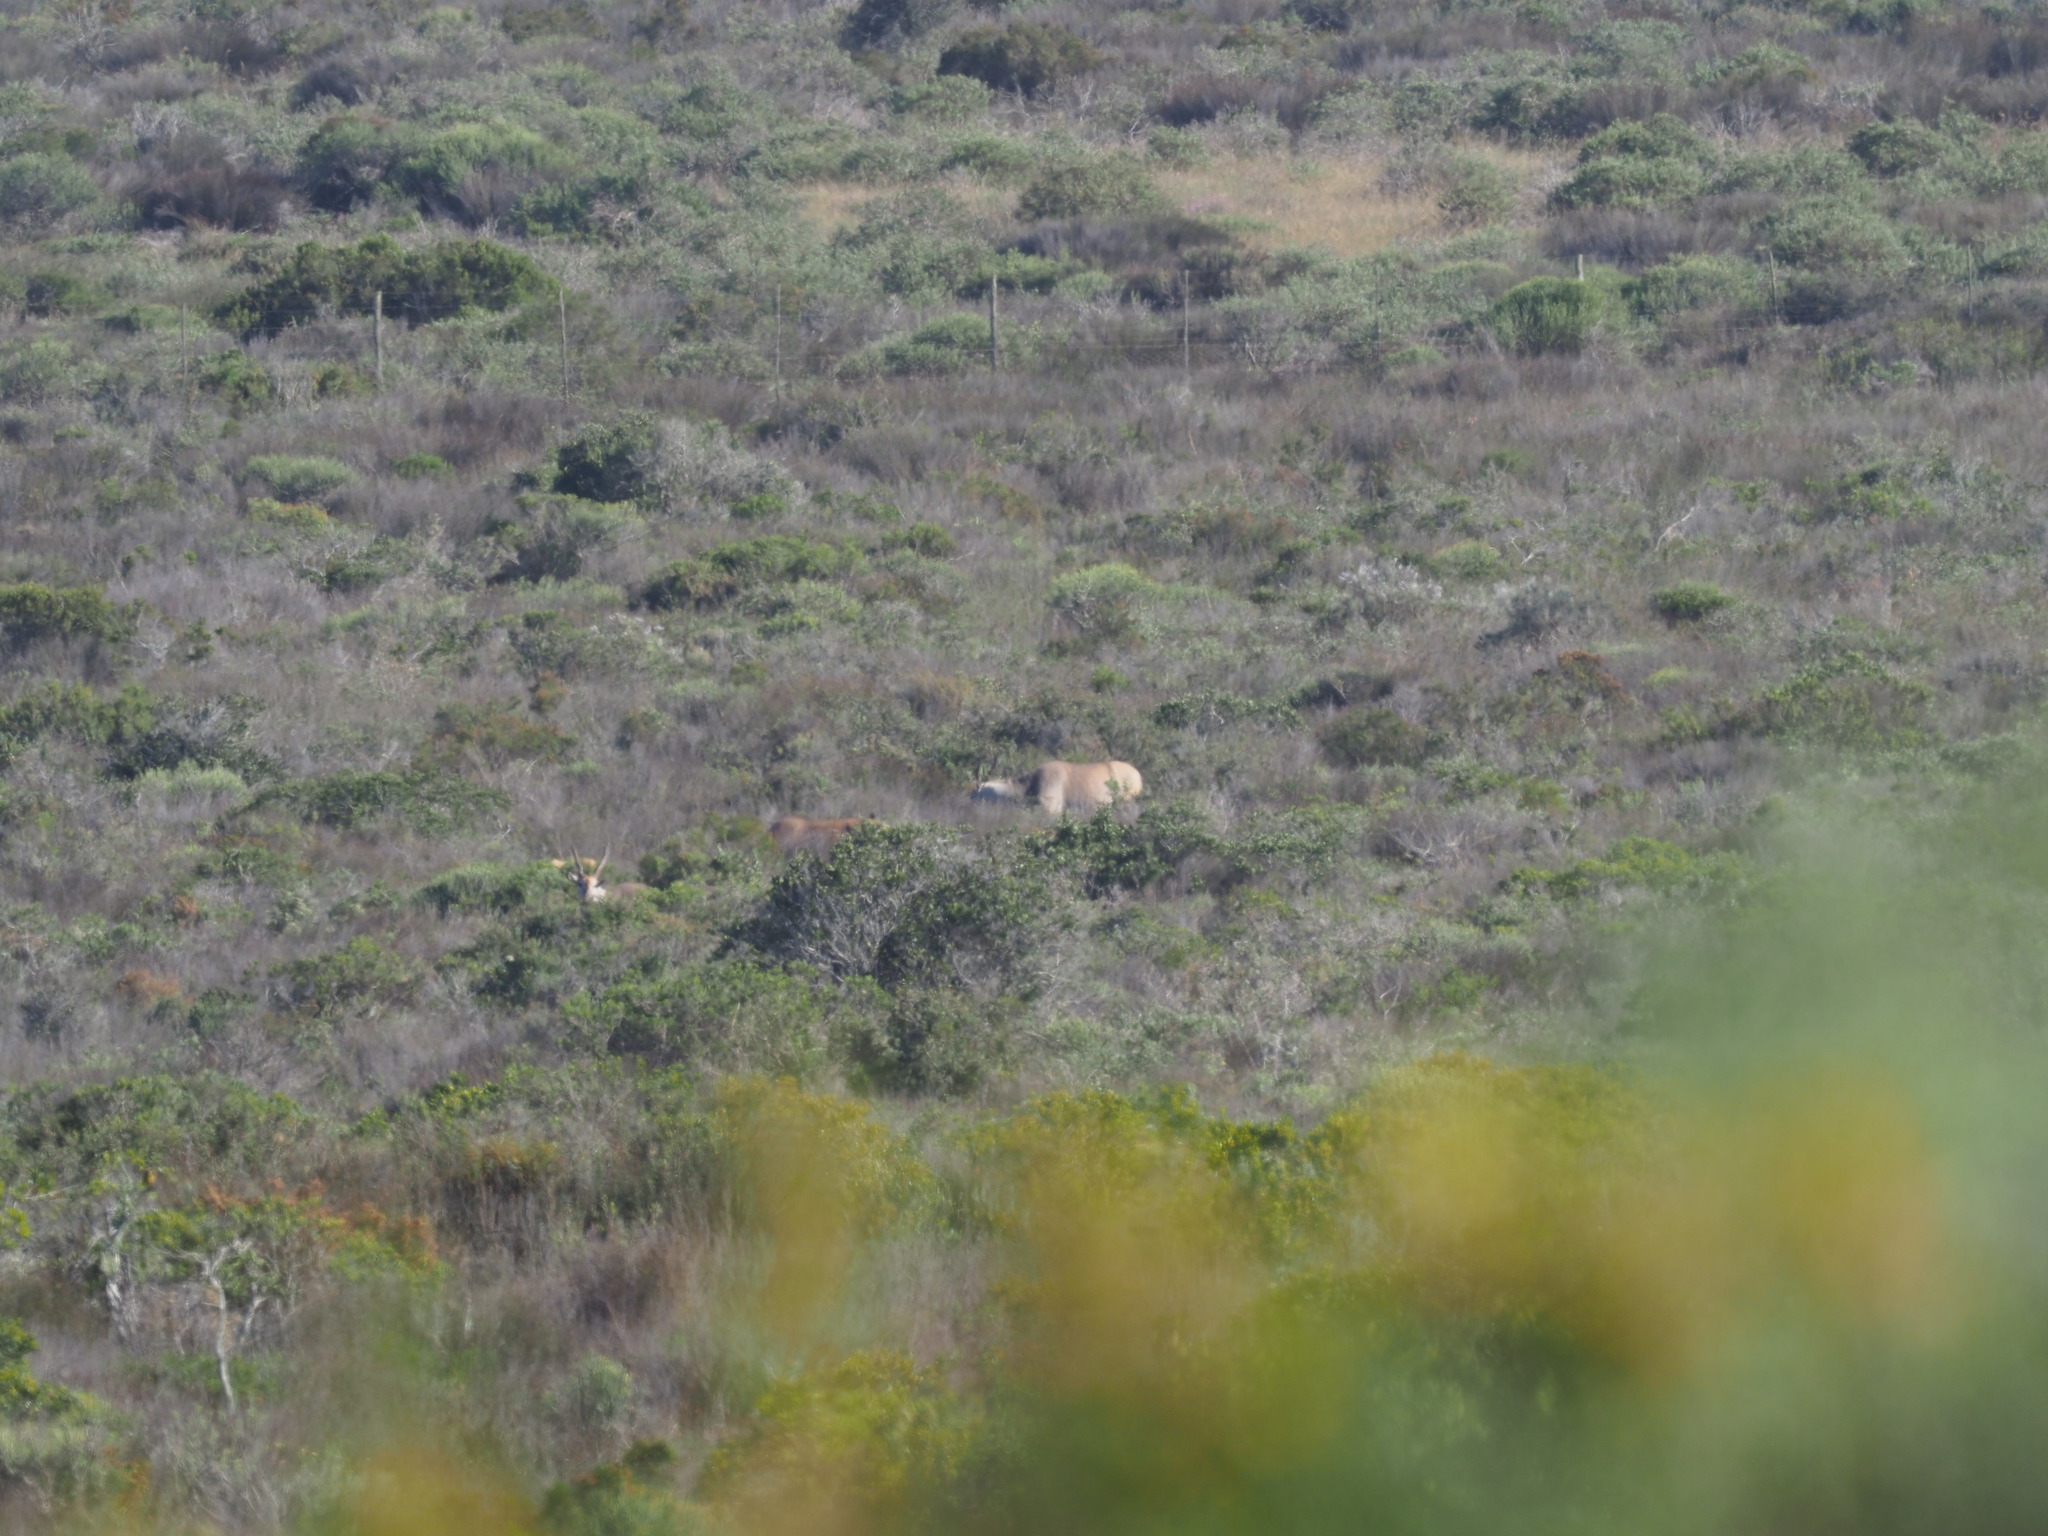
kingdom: Animalia
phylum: Chordata
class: Mammalia
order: Artiodactyla
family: Bovidae
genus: Taurotragus
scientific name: Taurotragus oryx
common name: Common eland
